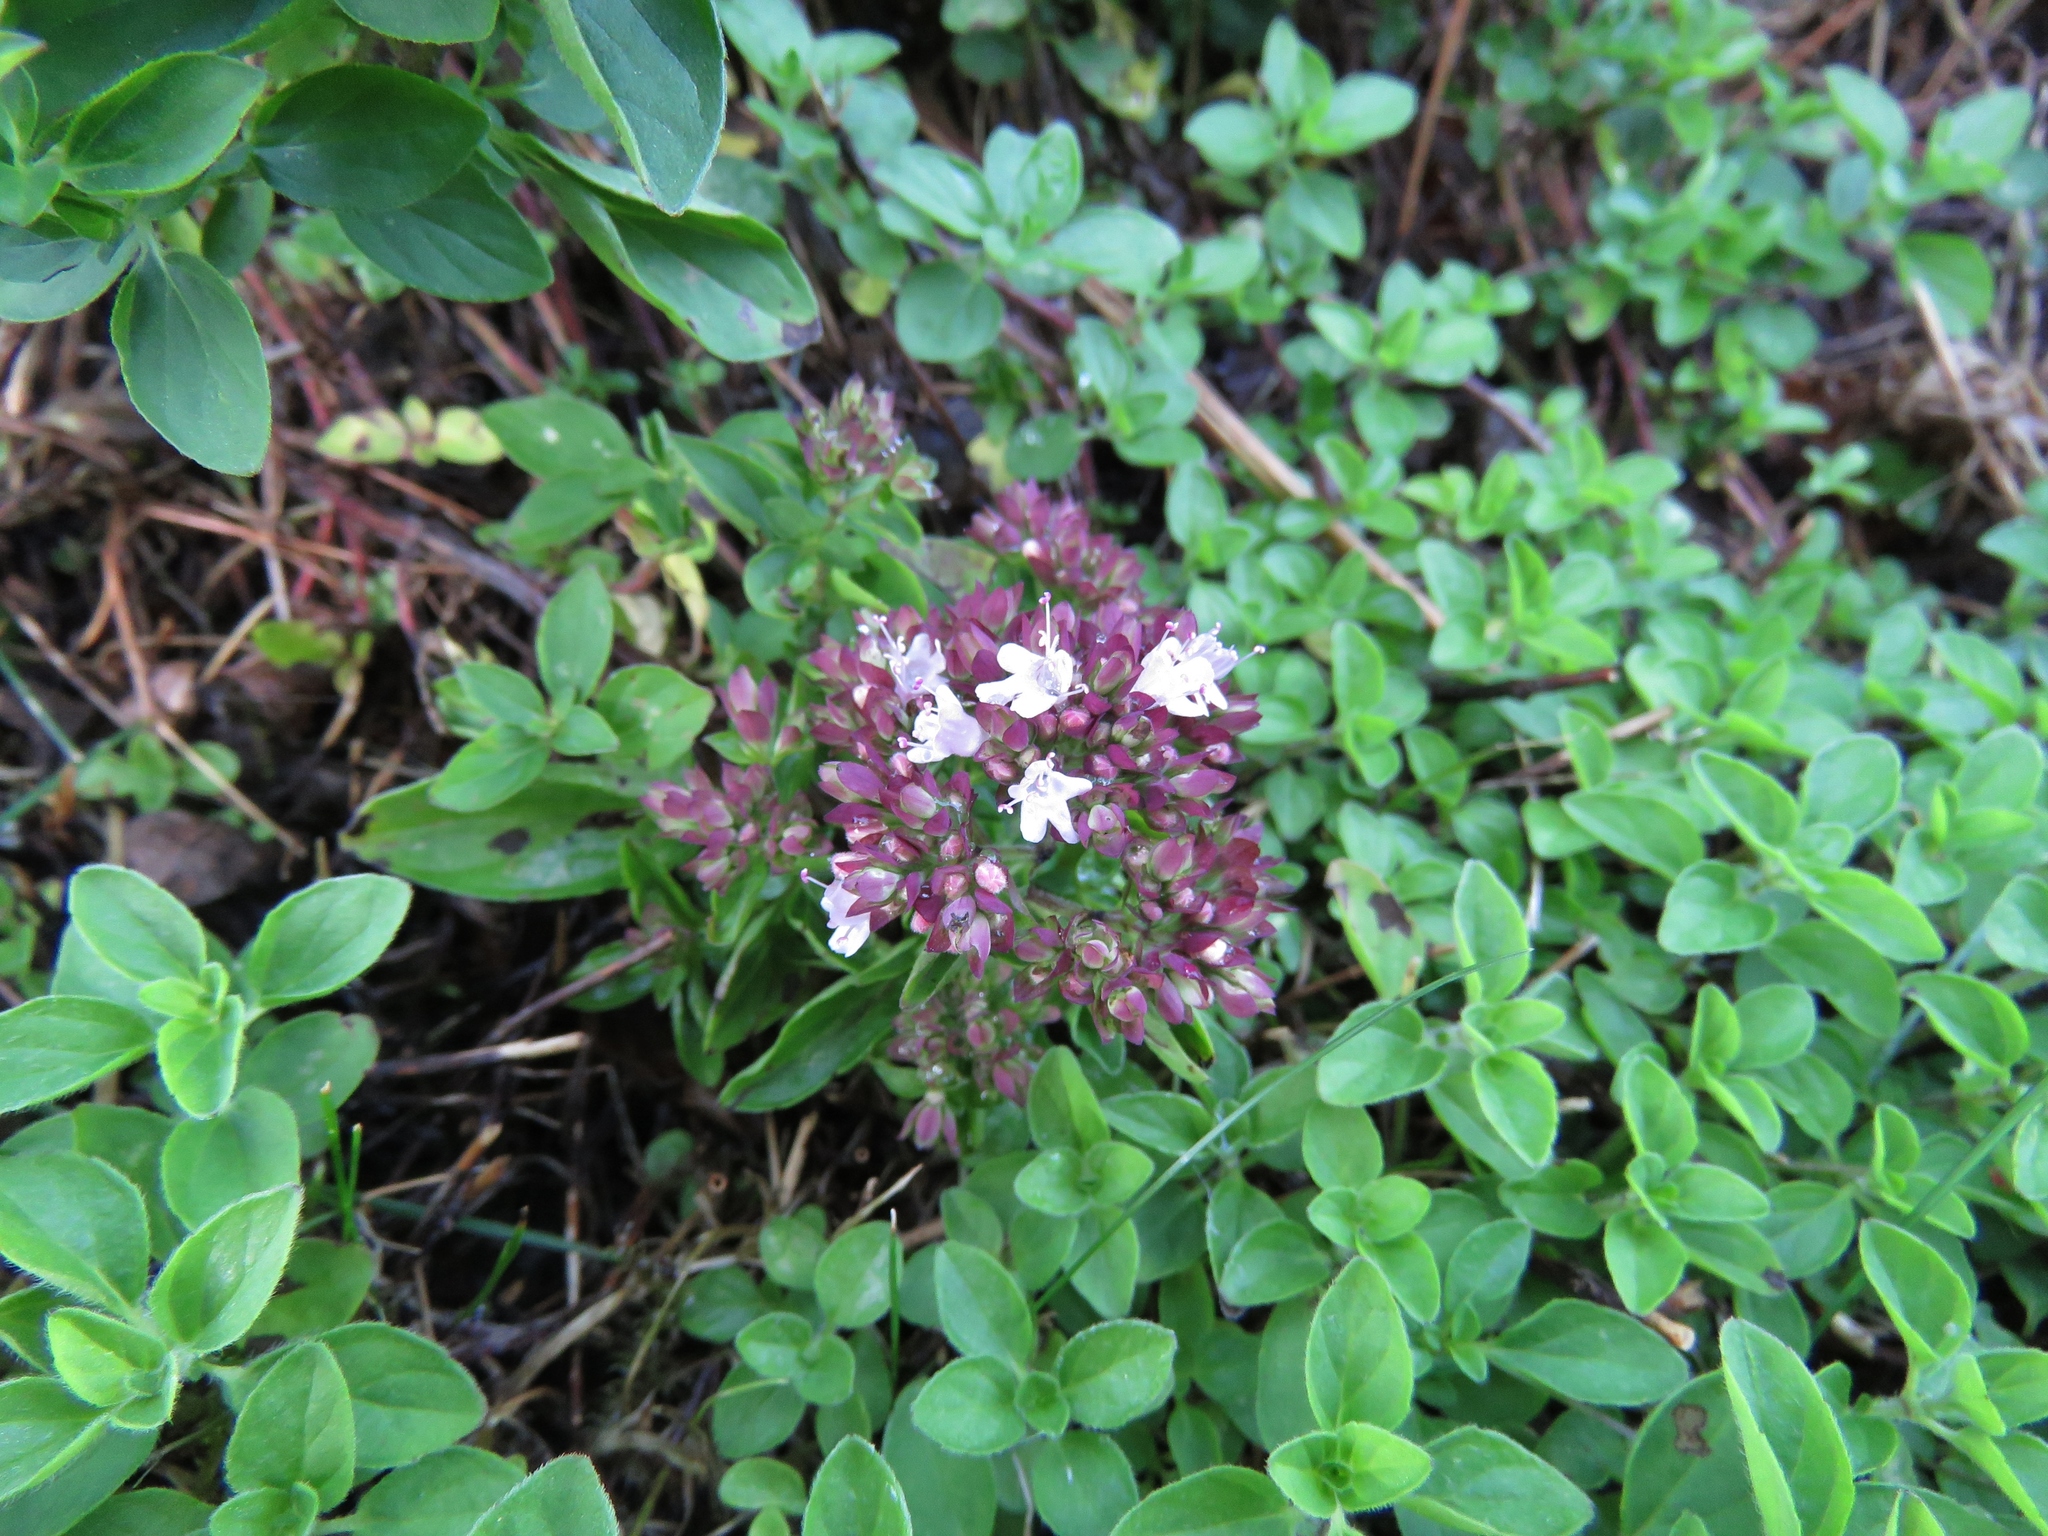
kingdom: Plantae
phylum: Tracheophyta
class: Magnoliopsida
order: Lamiales
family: Lamiaceae
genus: Origanum
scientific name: Origanum vulgare
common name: Wild marjoram
